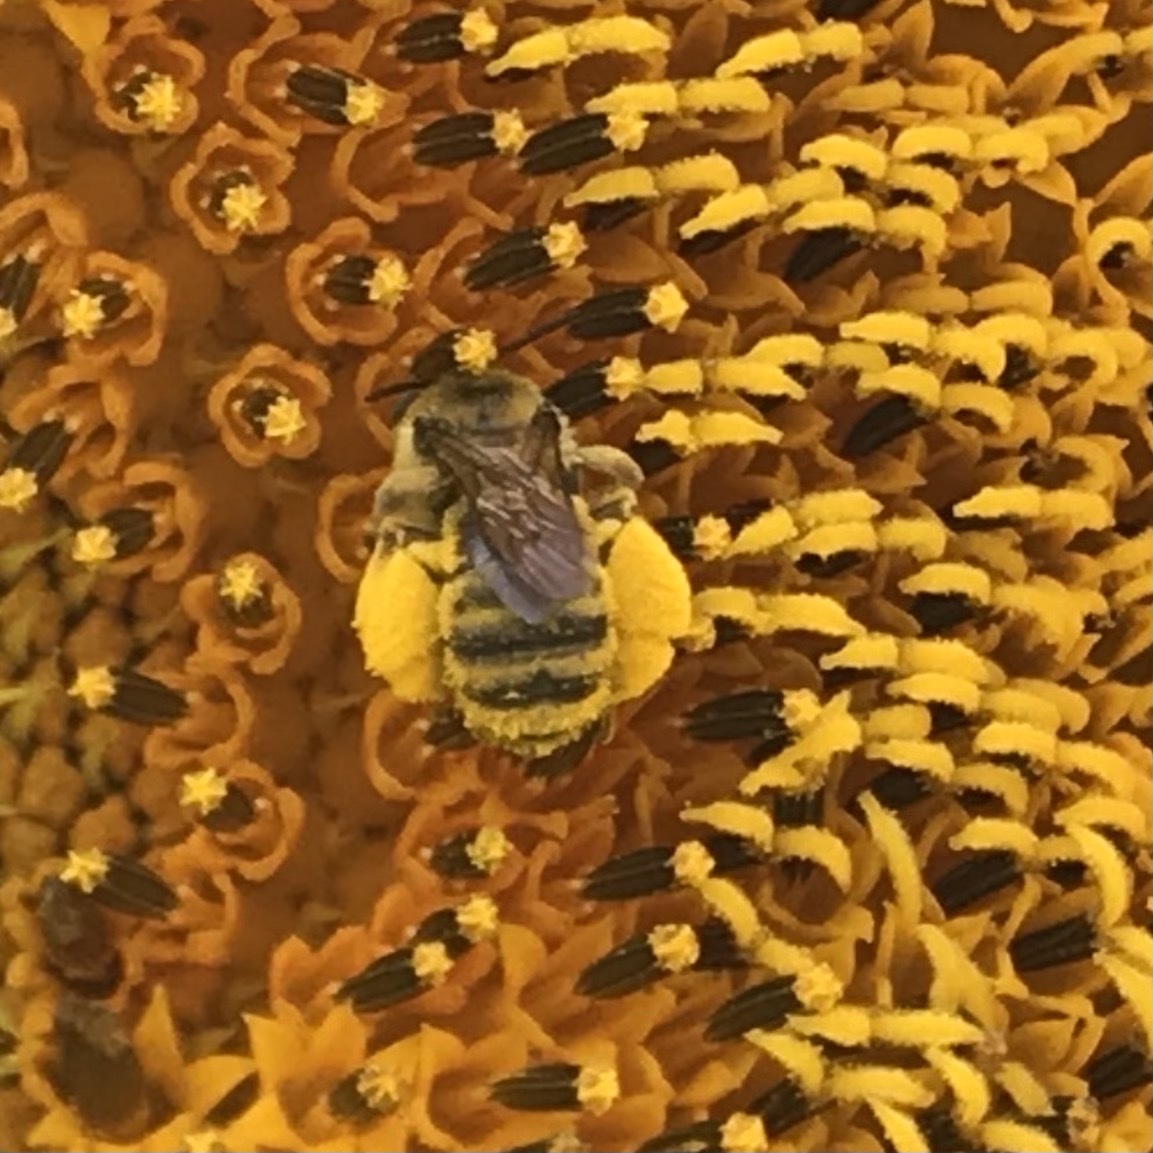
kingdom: Animalia
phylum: Arthropoda
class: Insecta
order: Hymenoptera
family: Apidae
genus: Melissodes
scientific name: Melissodes
